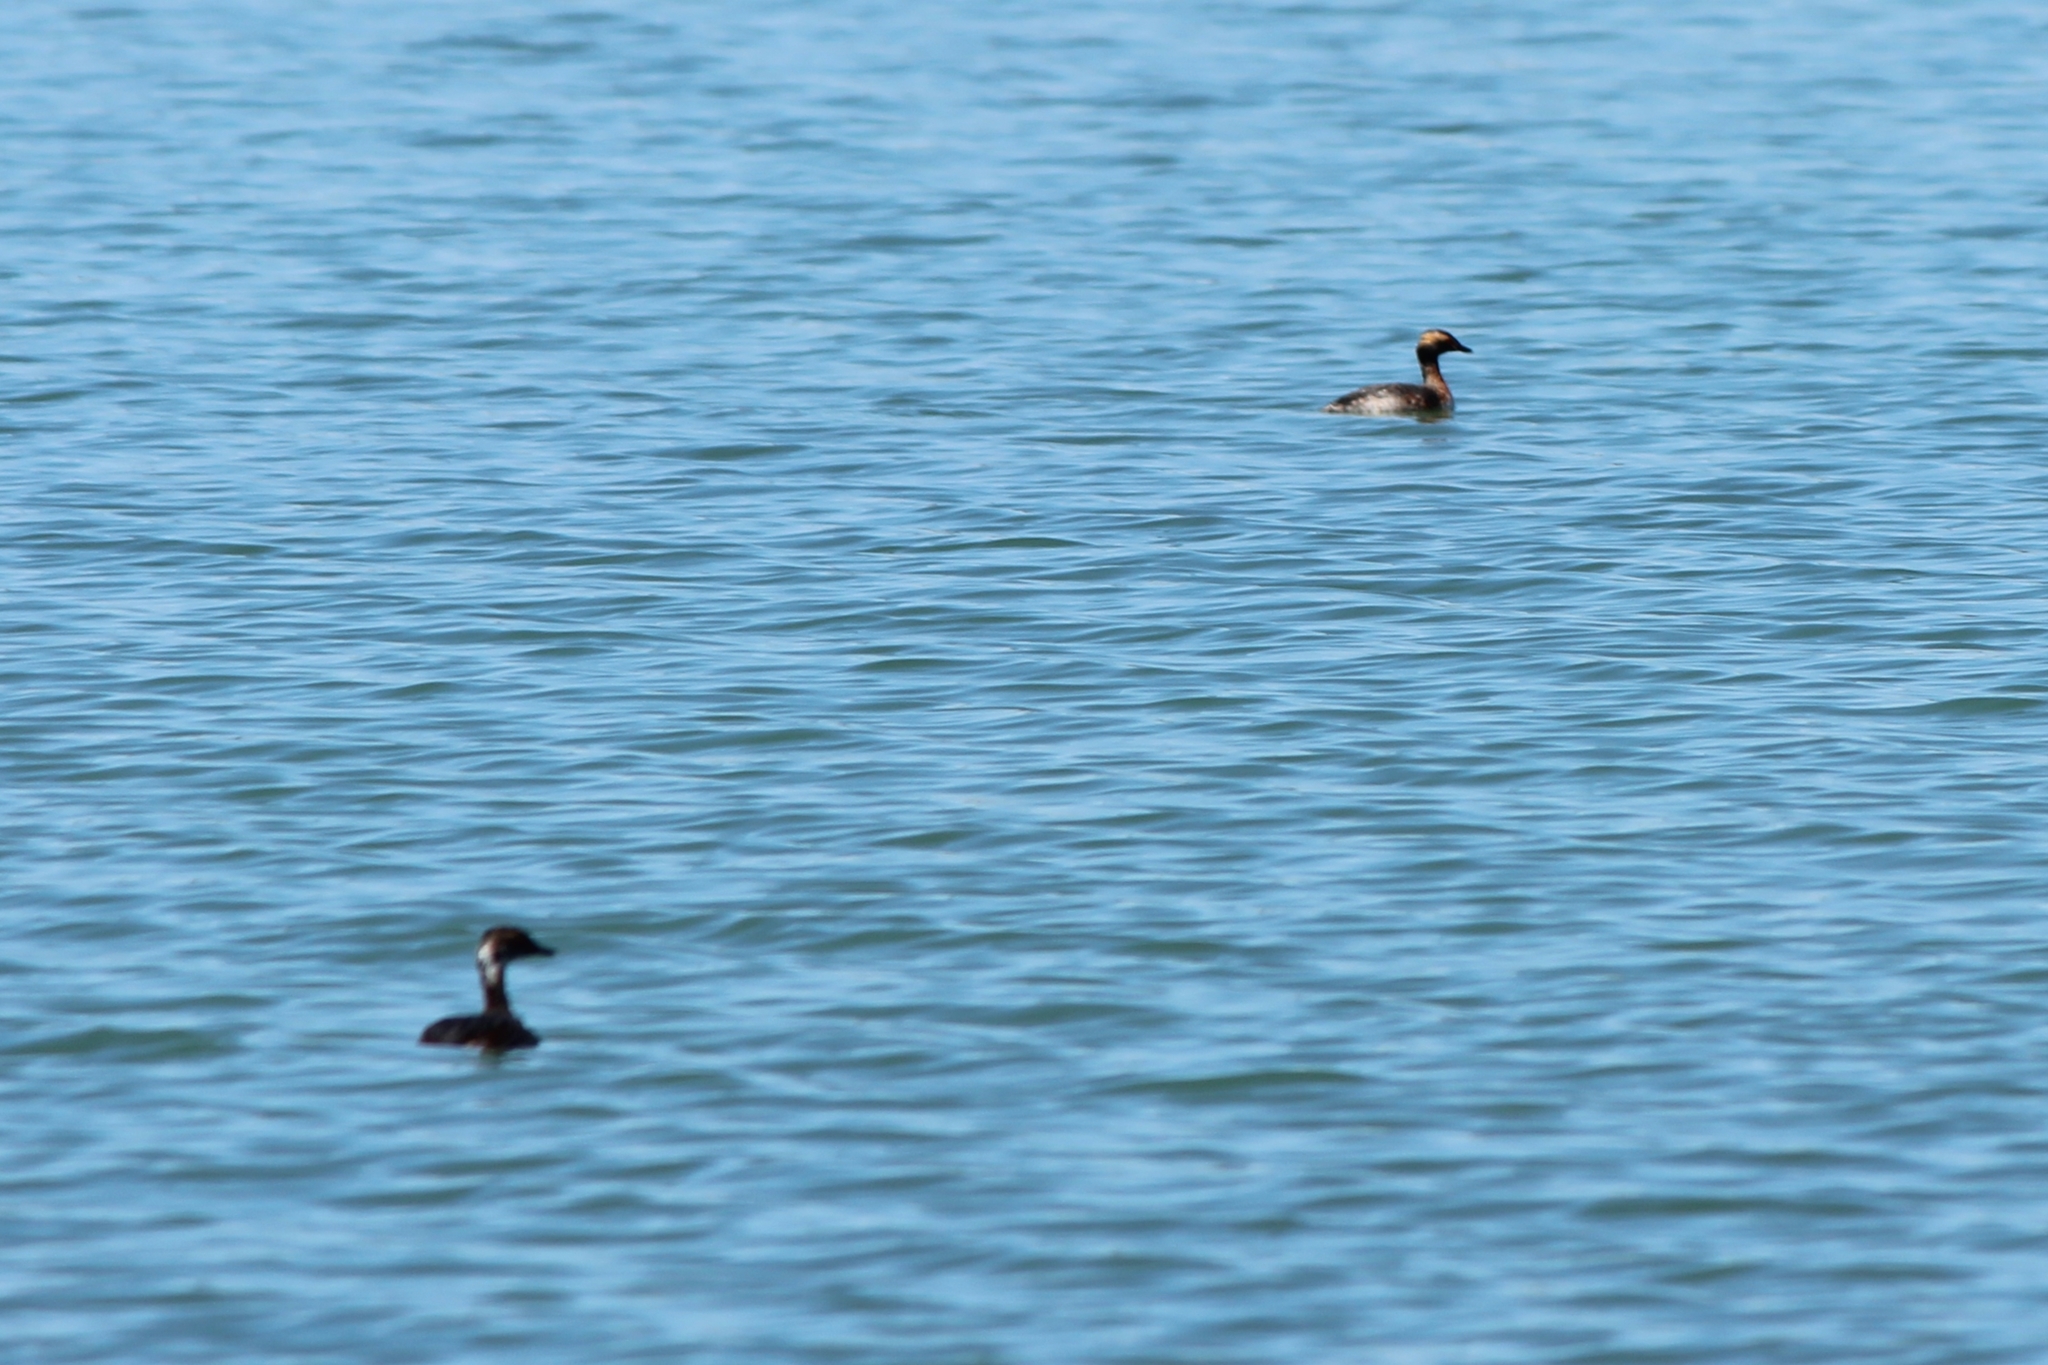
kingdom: Animalia
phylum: Chordata
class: Aves
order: Podicipediformes
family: Podicipedidae
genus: Podiceps
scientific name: Podiceps auritus
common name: Horned grebe
